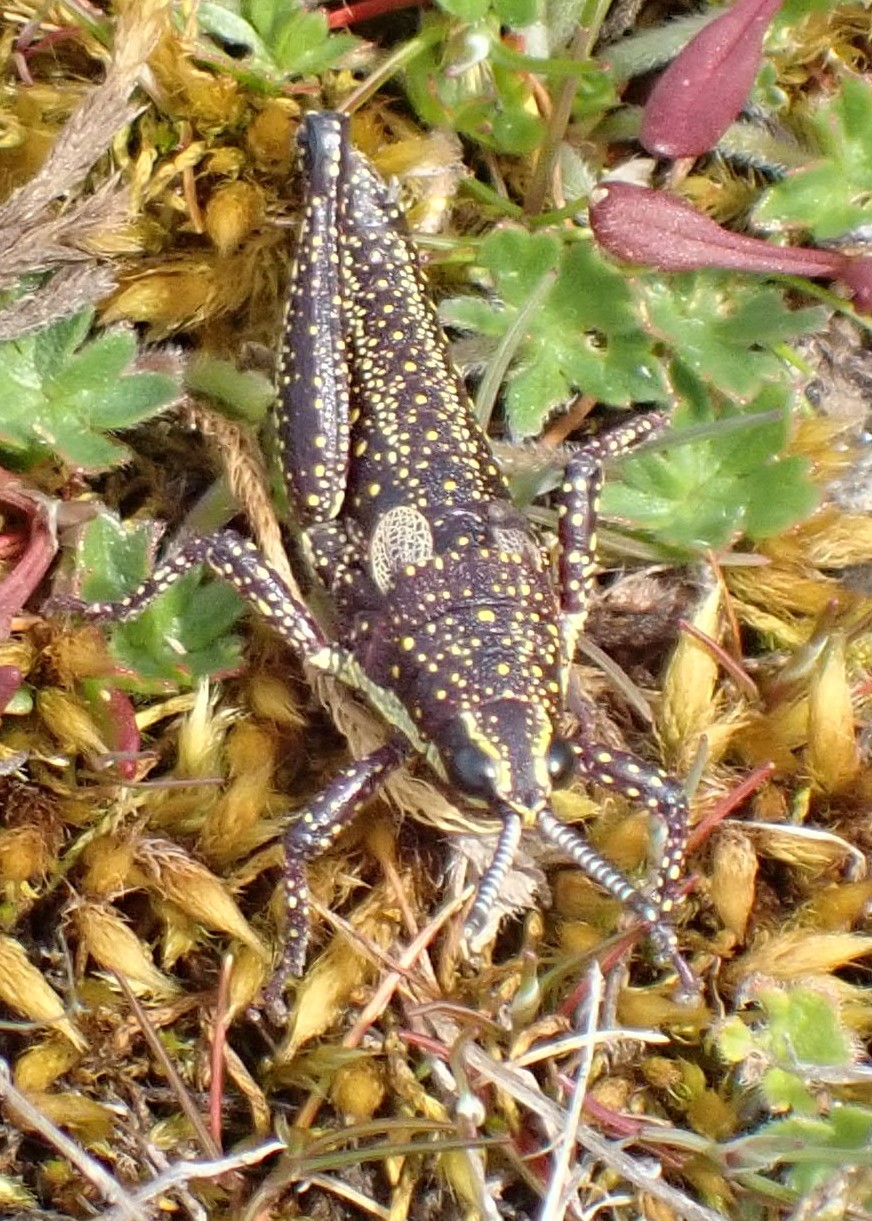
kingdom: Animalia
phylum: Arthropoda
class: Insecta
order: Orthoptera
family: Pyrgomorphidae
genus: Monistria
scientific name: Monistria concinna
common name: Southern pyrgomorph
